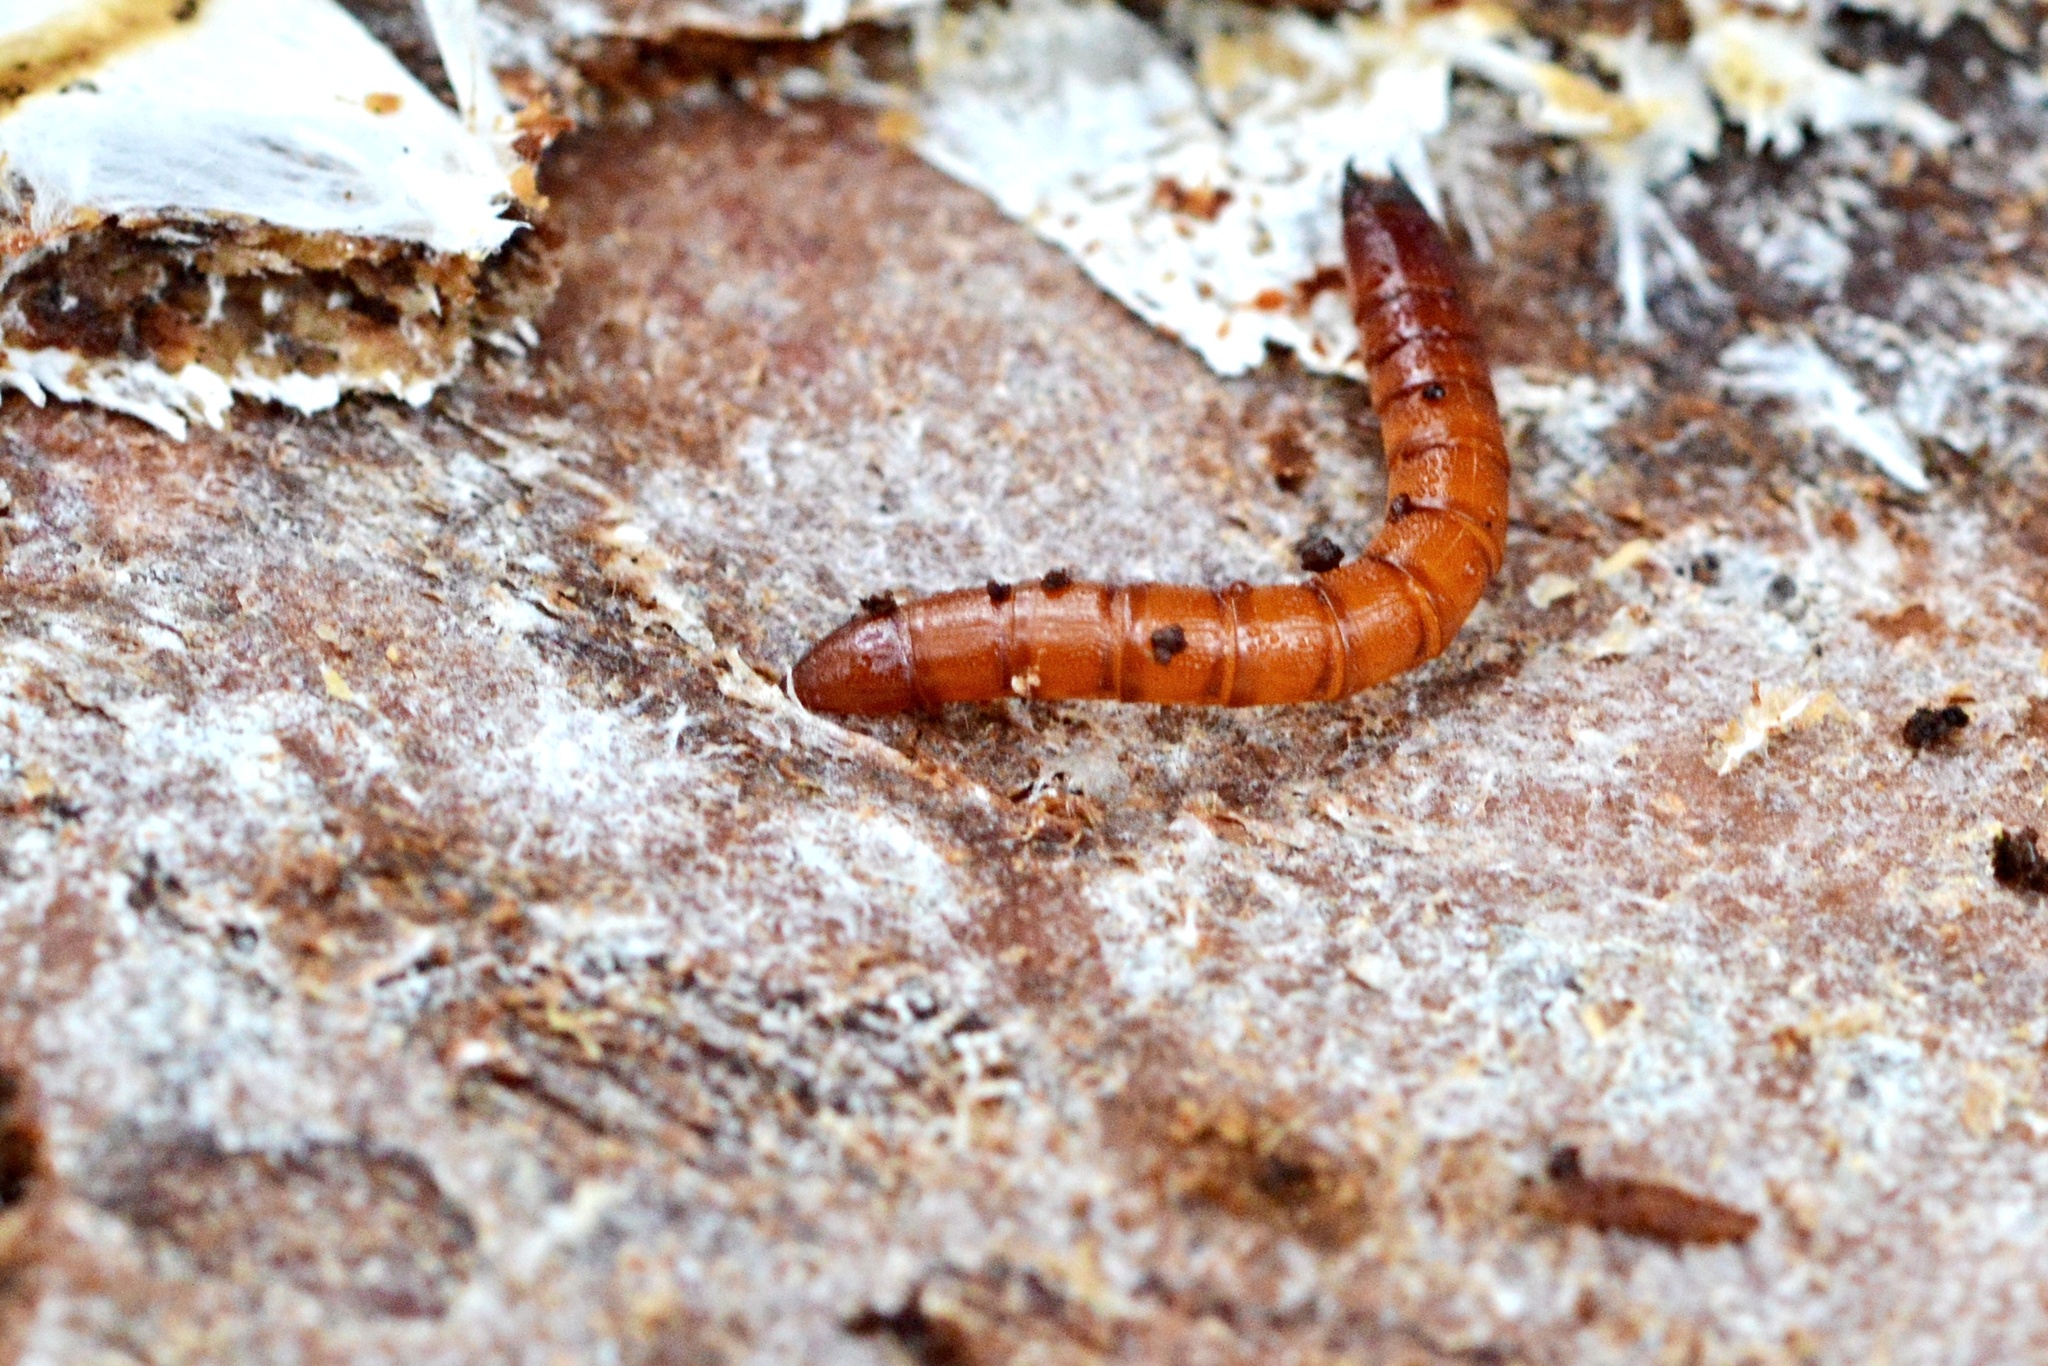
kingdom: Animalia
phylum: Arthropoda
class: Insecta
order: Coleoptera
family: Elateridae
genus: Ampedus
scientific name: Ampedus sanguineus
